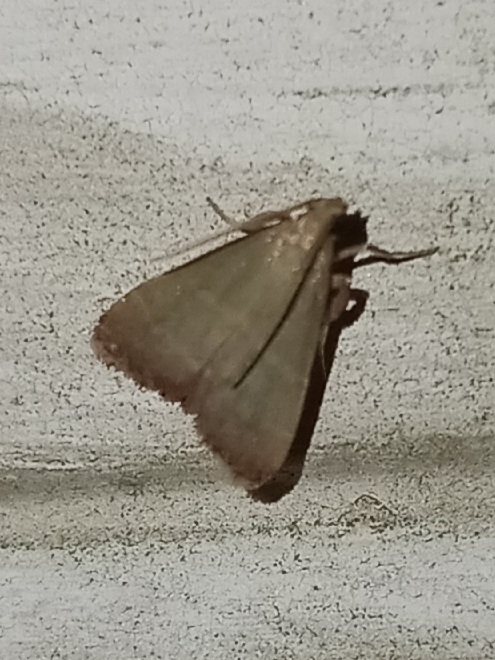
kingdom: Animalia
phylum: Arthropoda
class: Insecta
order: Lepidoptera
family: Pyralidae
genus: Arta
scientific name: Arta olivalis
